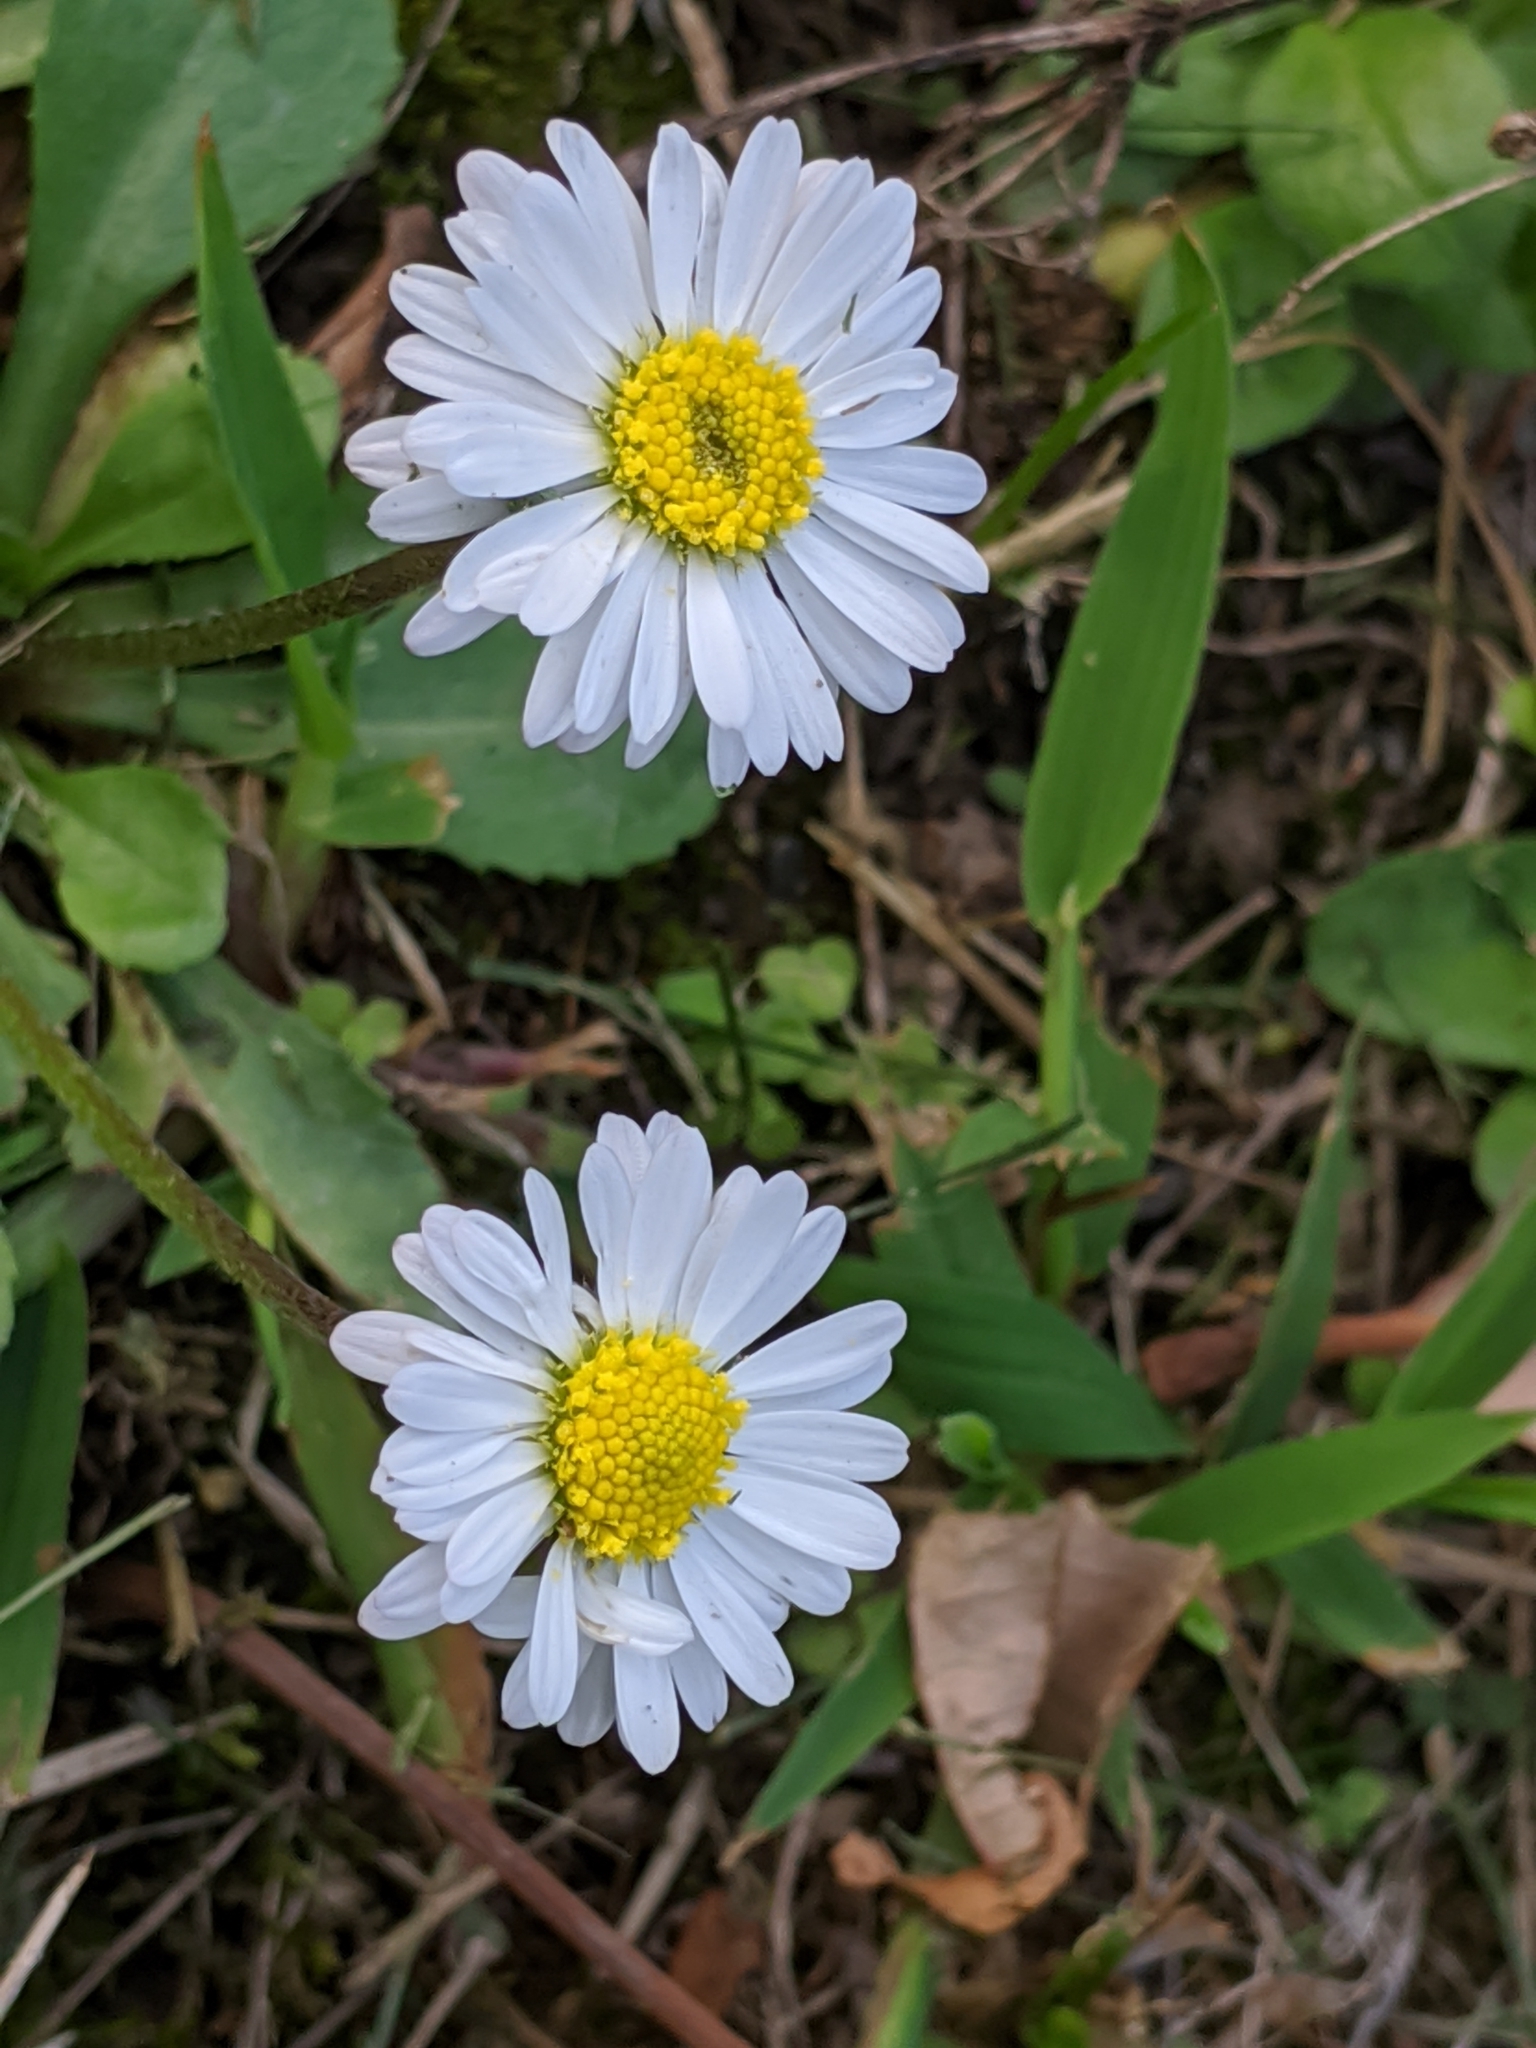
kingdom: Plantae
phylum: Tracheophyta
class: Magnoliopsida
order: Asterales
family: Asteraceae
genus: Bellis
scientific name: Bellis perennis
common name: Lawndaisy
